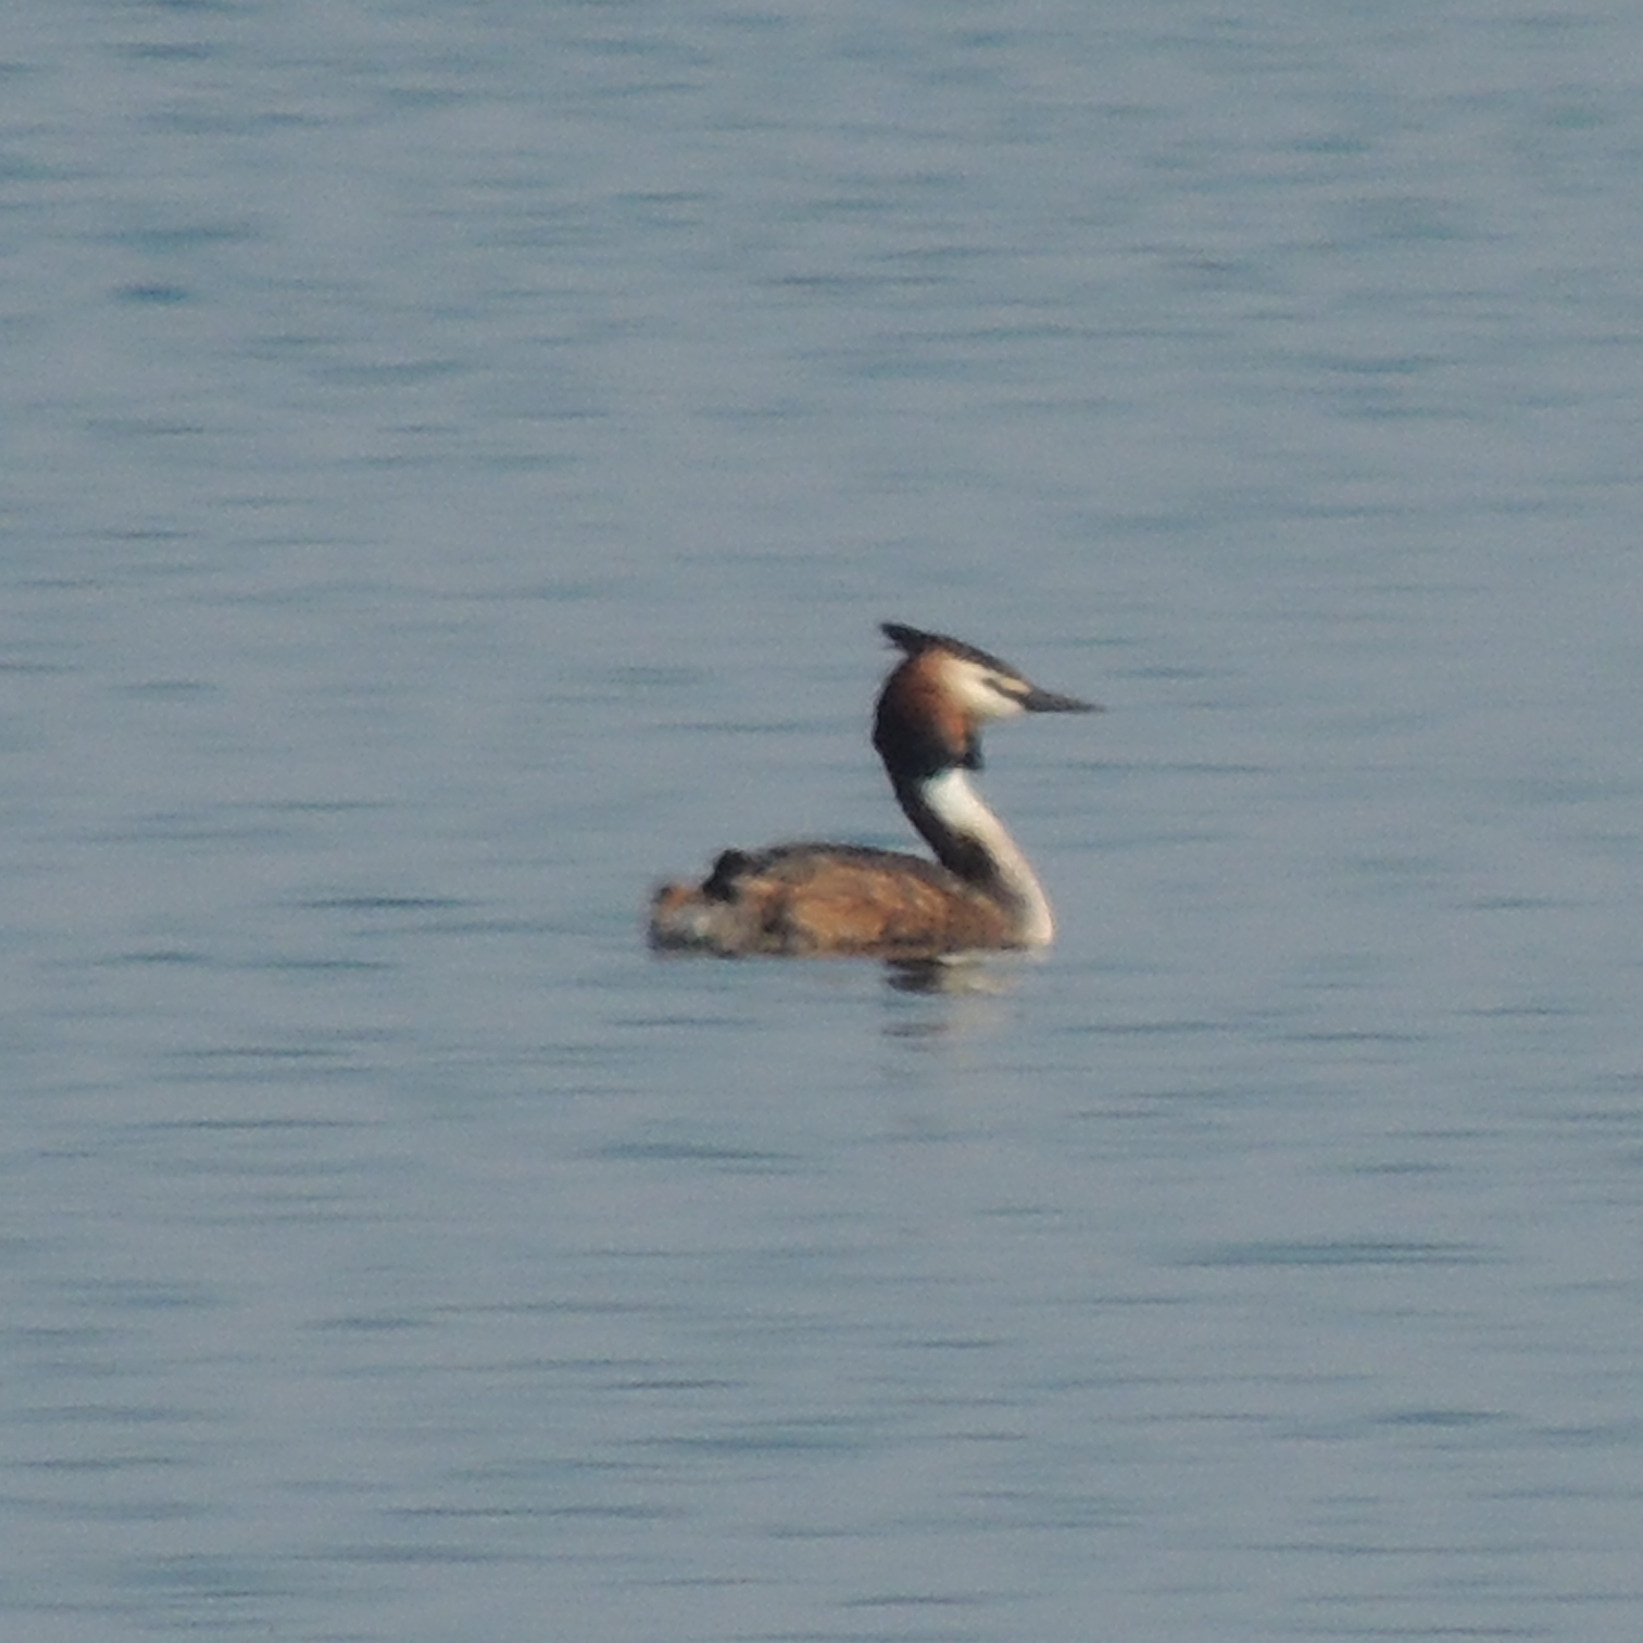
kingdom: Animalia
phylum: Chordata
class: Aves
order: Podicipediformes
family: Podicipedidae
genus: Podiceps
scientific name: Podiceps cristatus
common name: Great crested grebe
